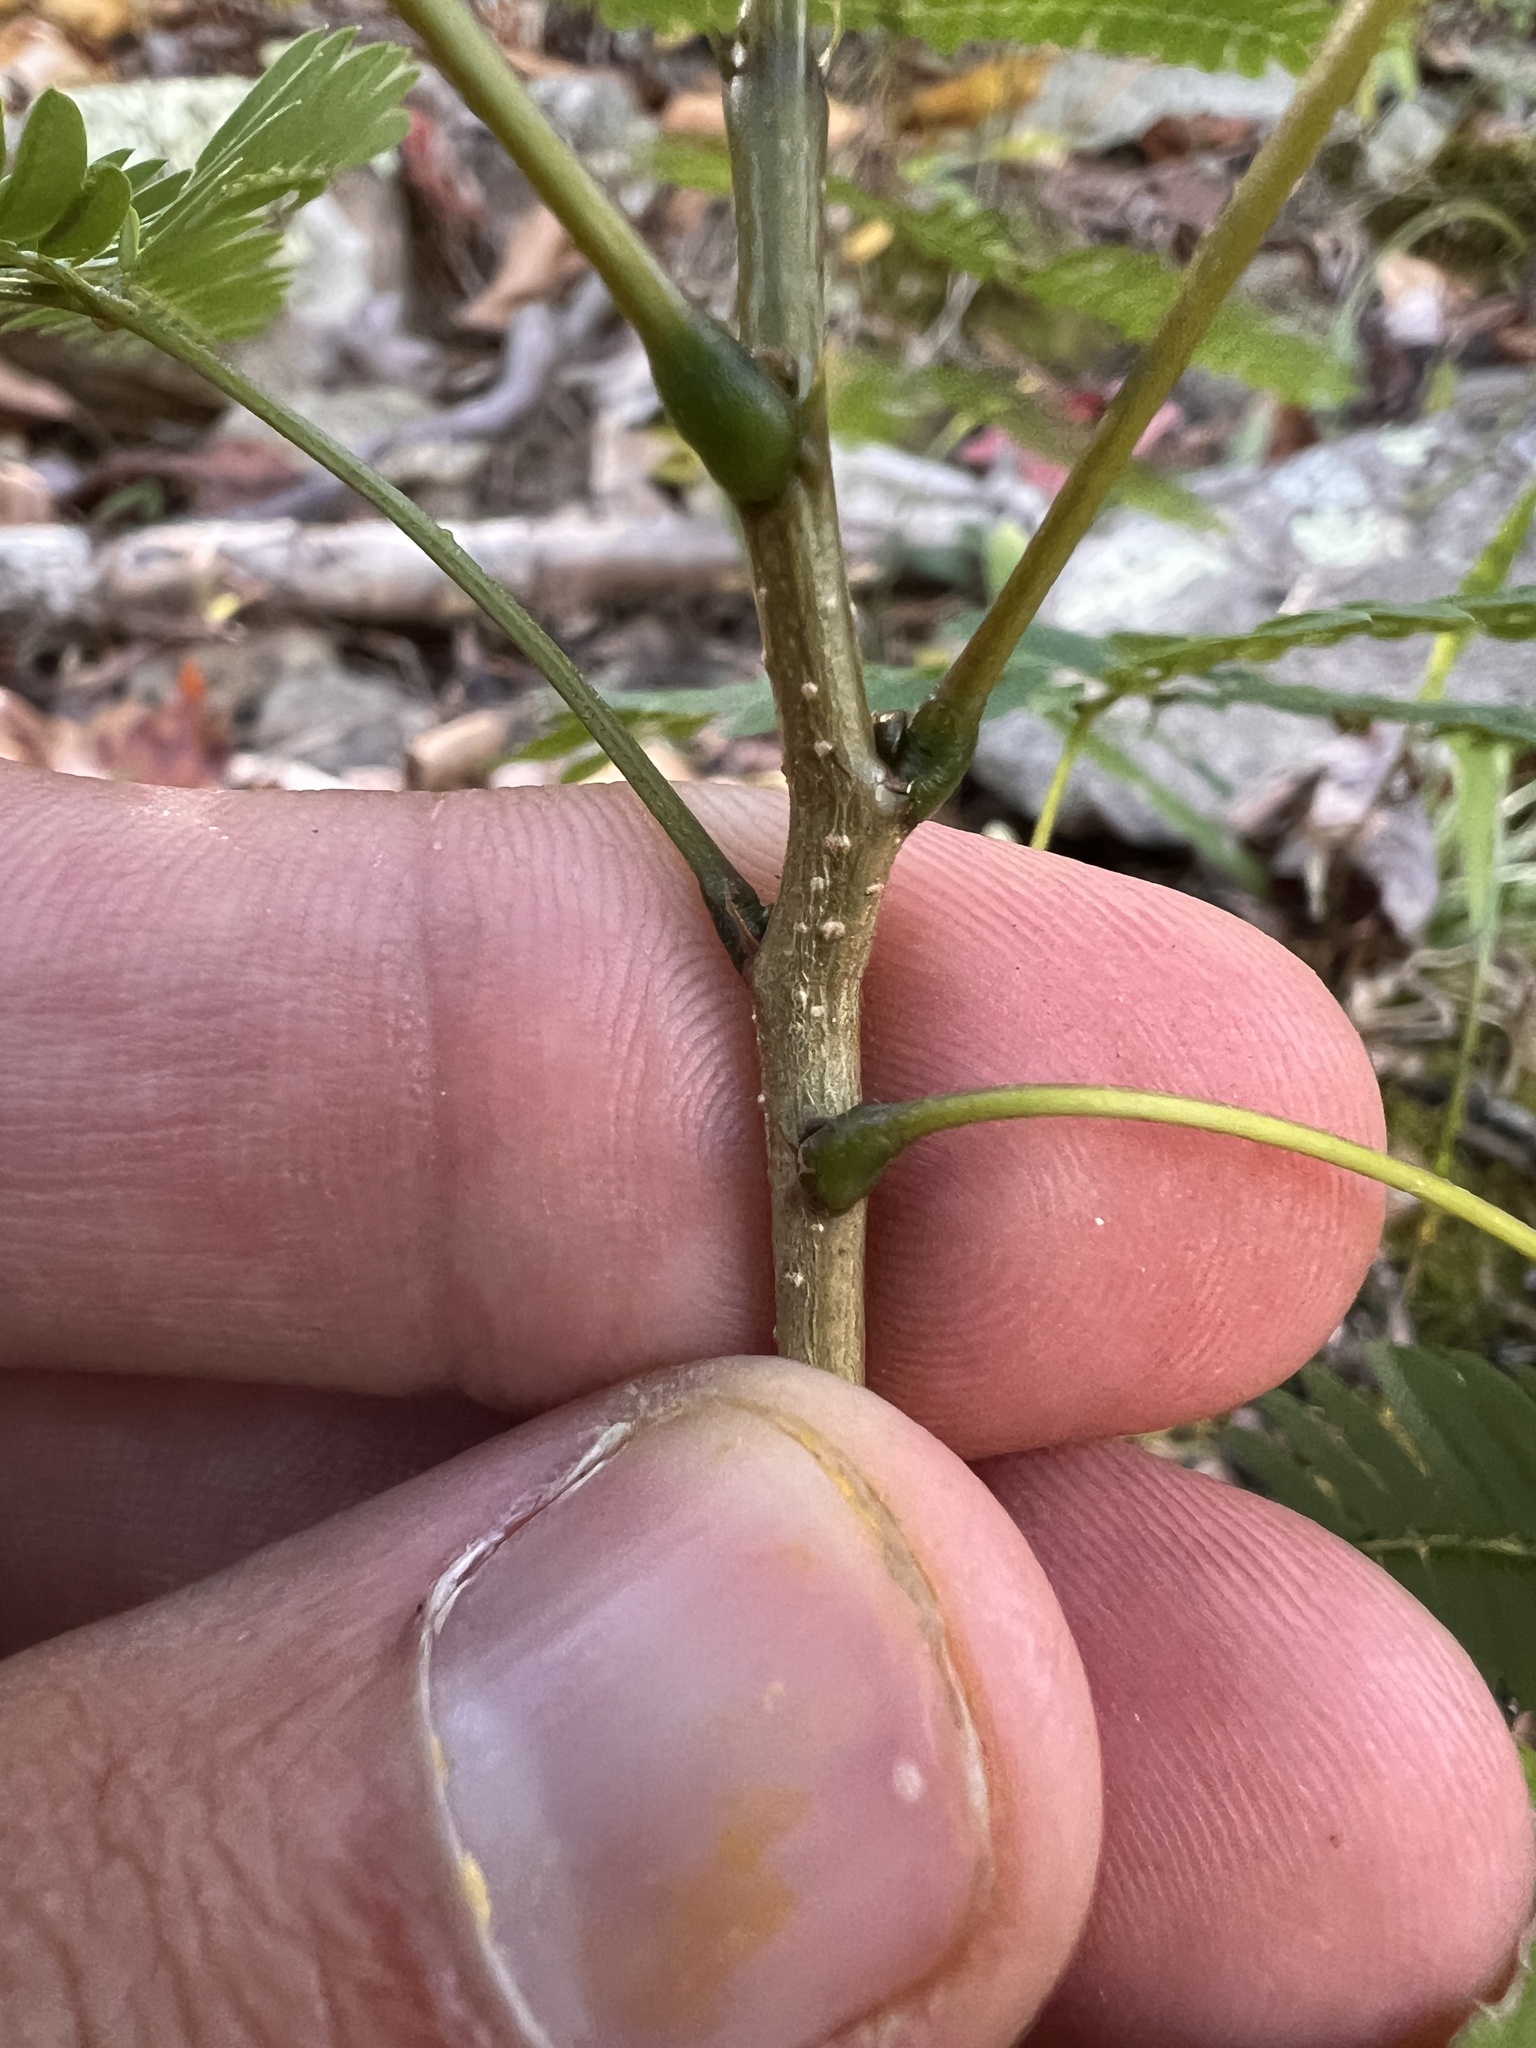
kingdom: Plantae
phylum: Tracheophyta
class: Magnoliopsida
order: Fabales
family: Fabaceae
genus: Albizia
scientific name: Albizia julibrissin
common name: Silktree
